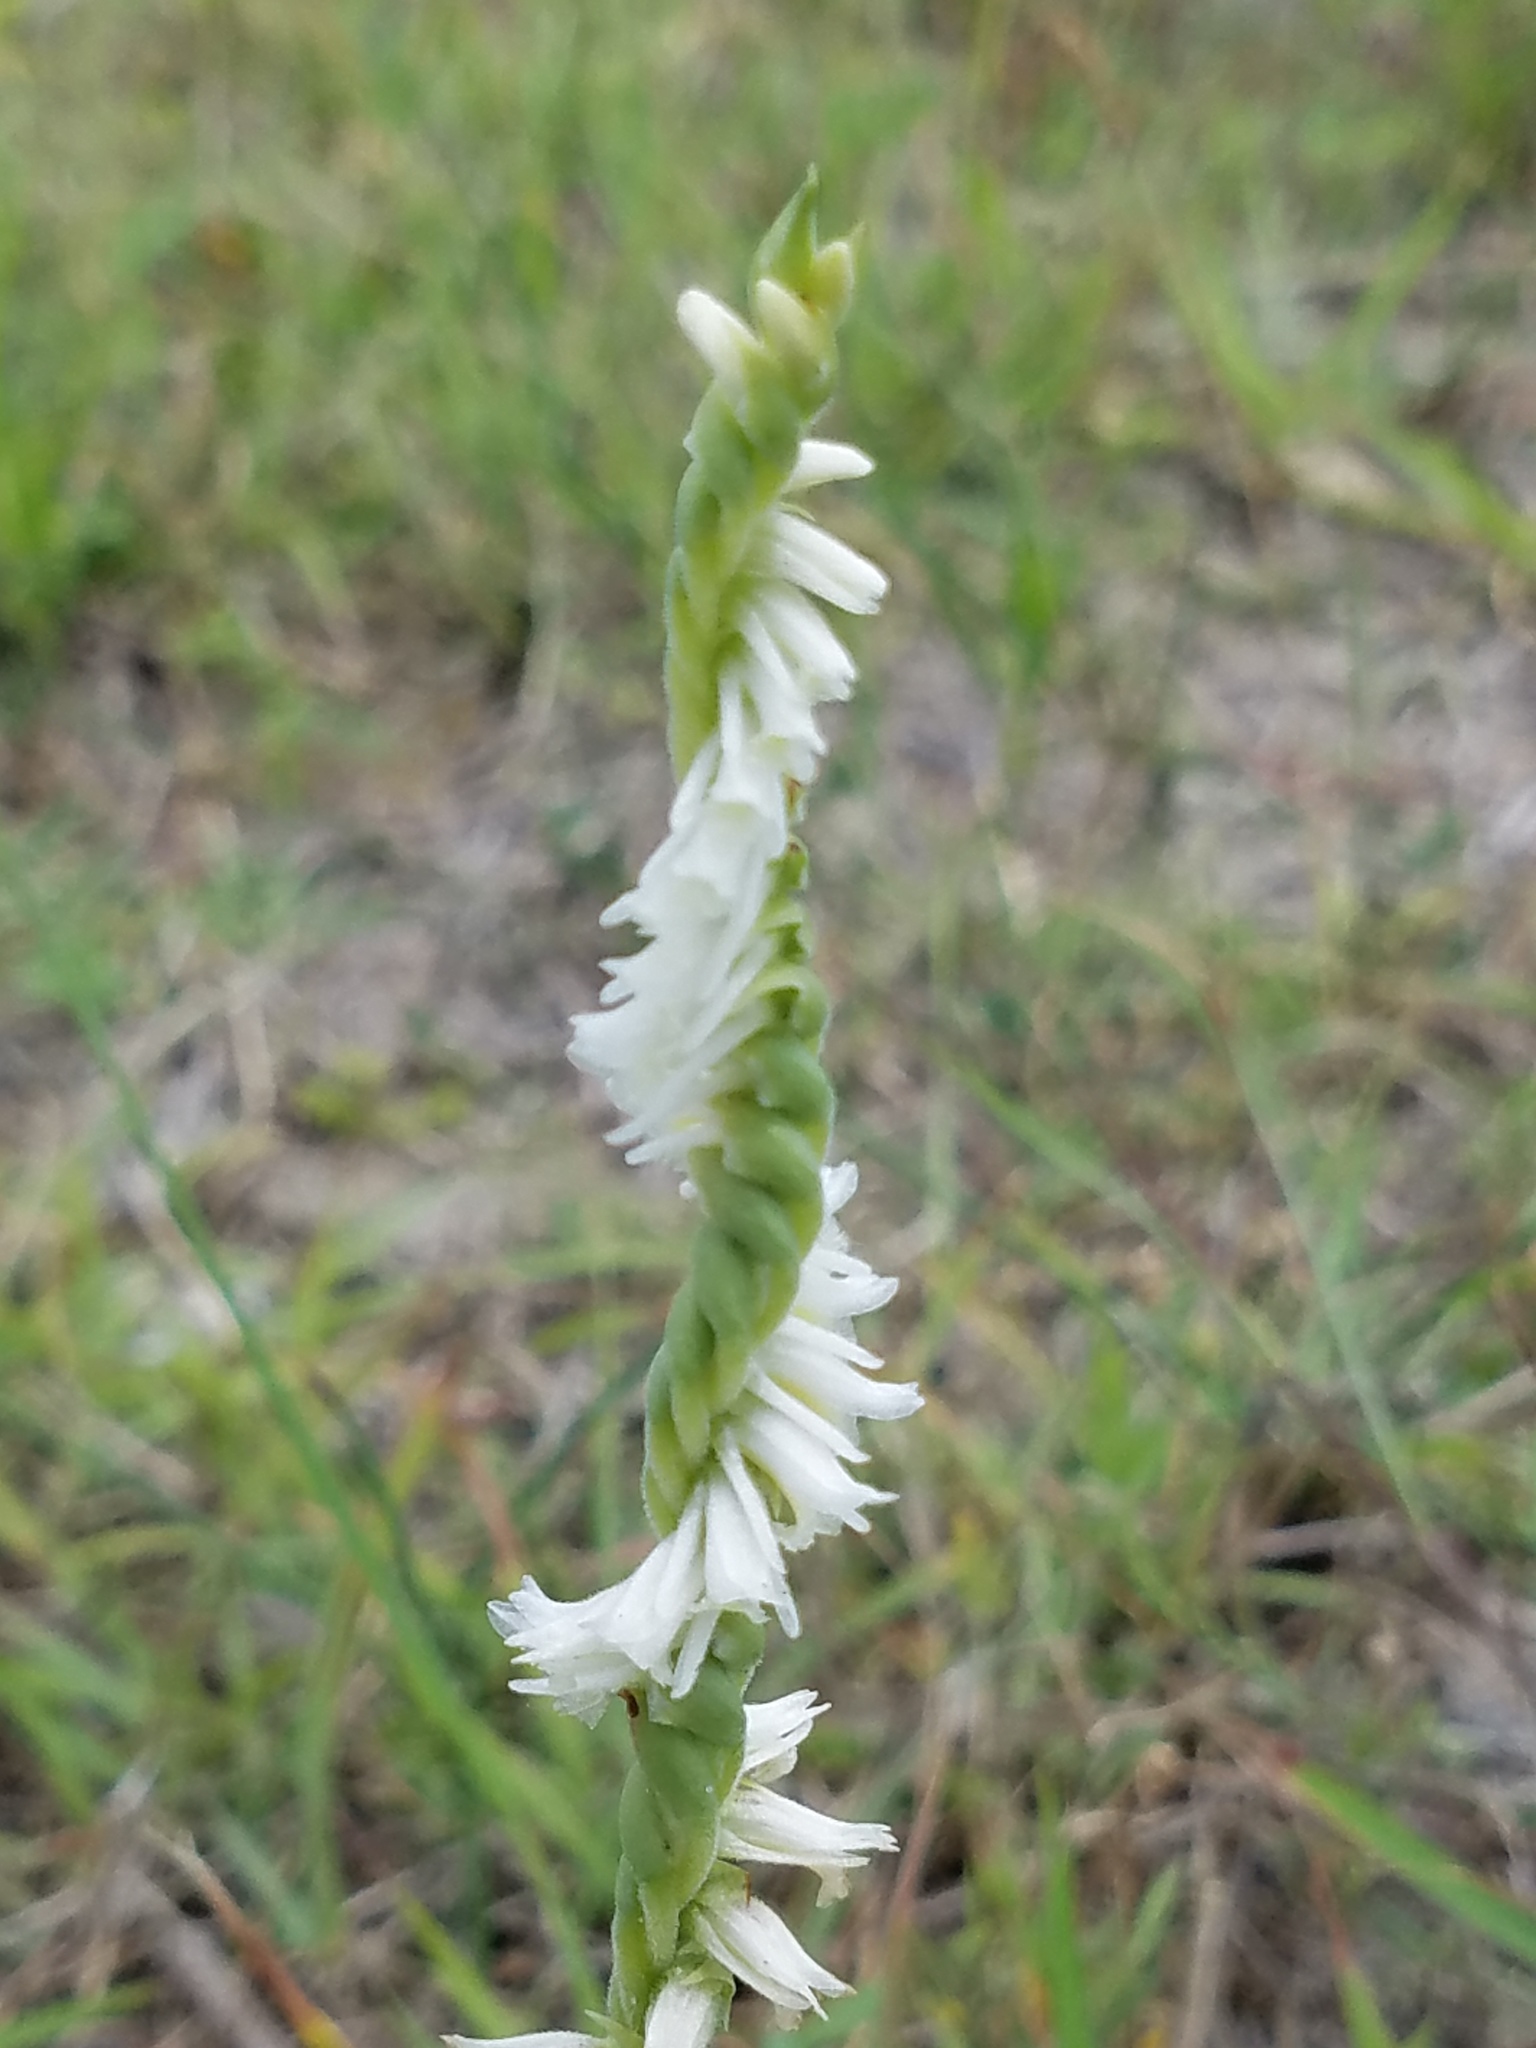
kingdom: Plantae
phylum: Tracheophyta
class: Liliopsida
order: Asparagales
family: Orchidaceae
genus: Spiranthes
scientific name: Spiranthes vernalis
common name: Spring ladies'-tresses
